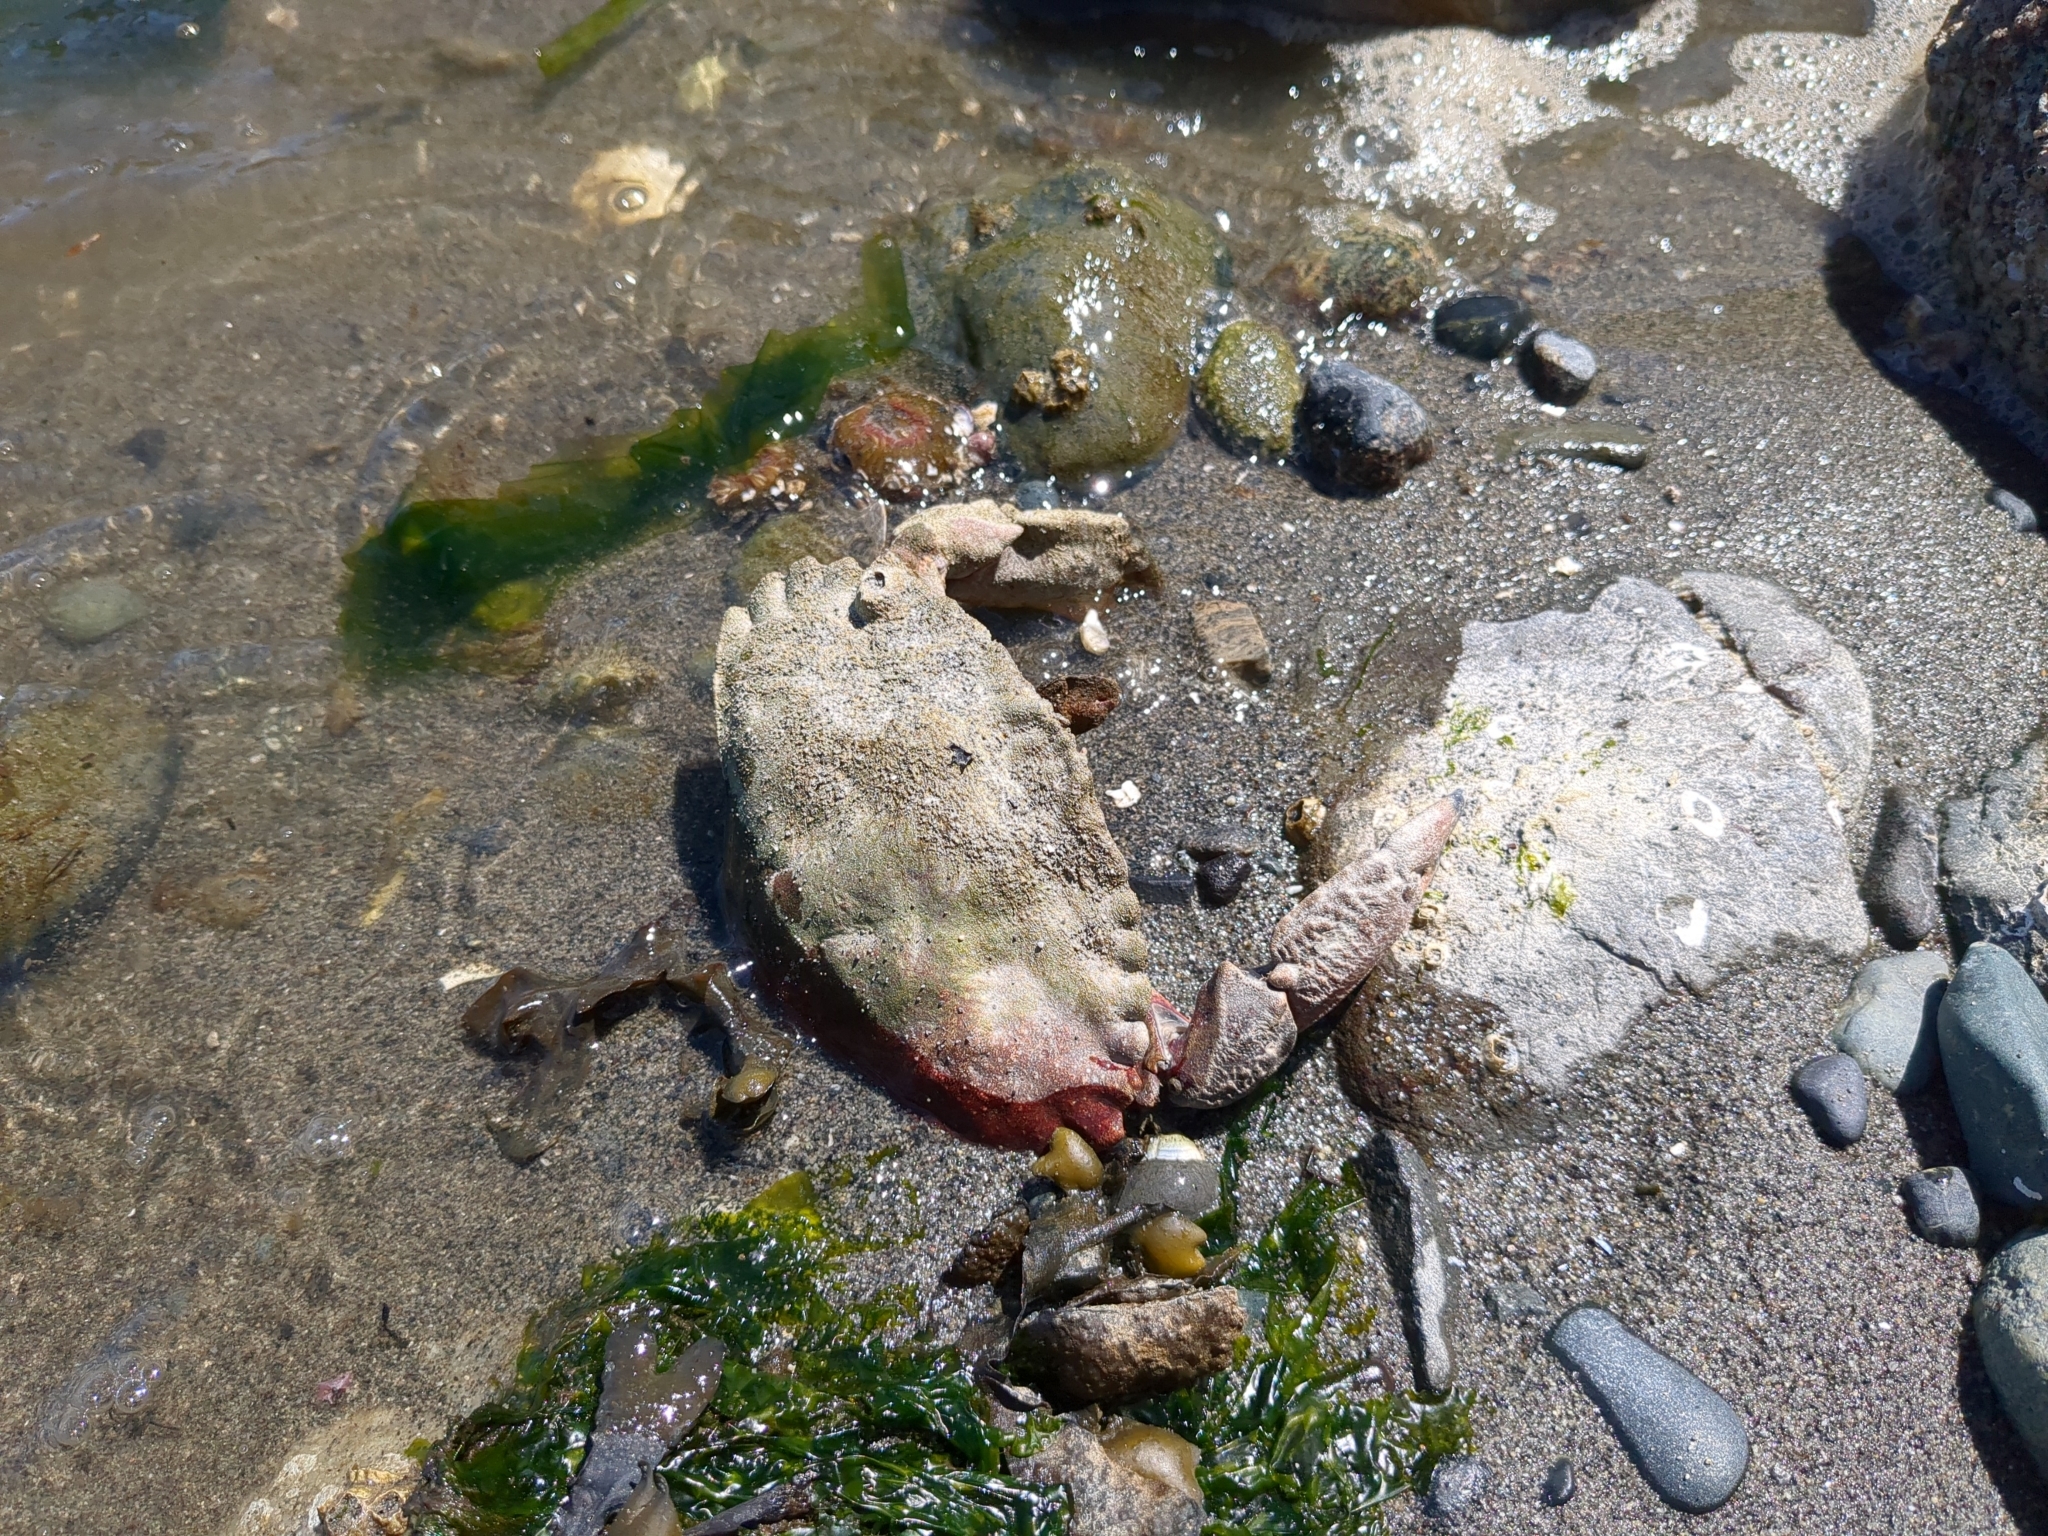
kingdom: Animalia
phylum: Arthropoda
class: Malacostraca
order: Decapoda
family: Cancridae
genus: Cancer
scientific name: Cancer productus
